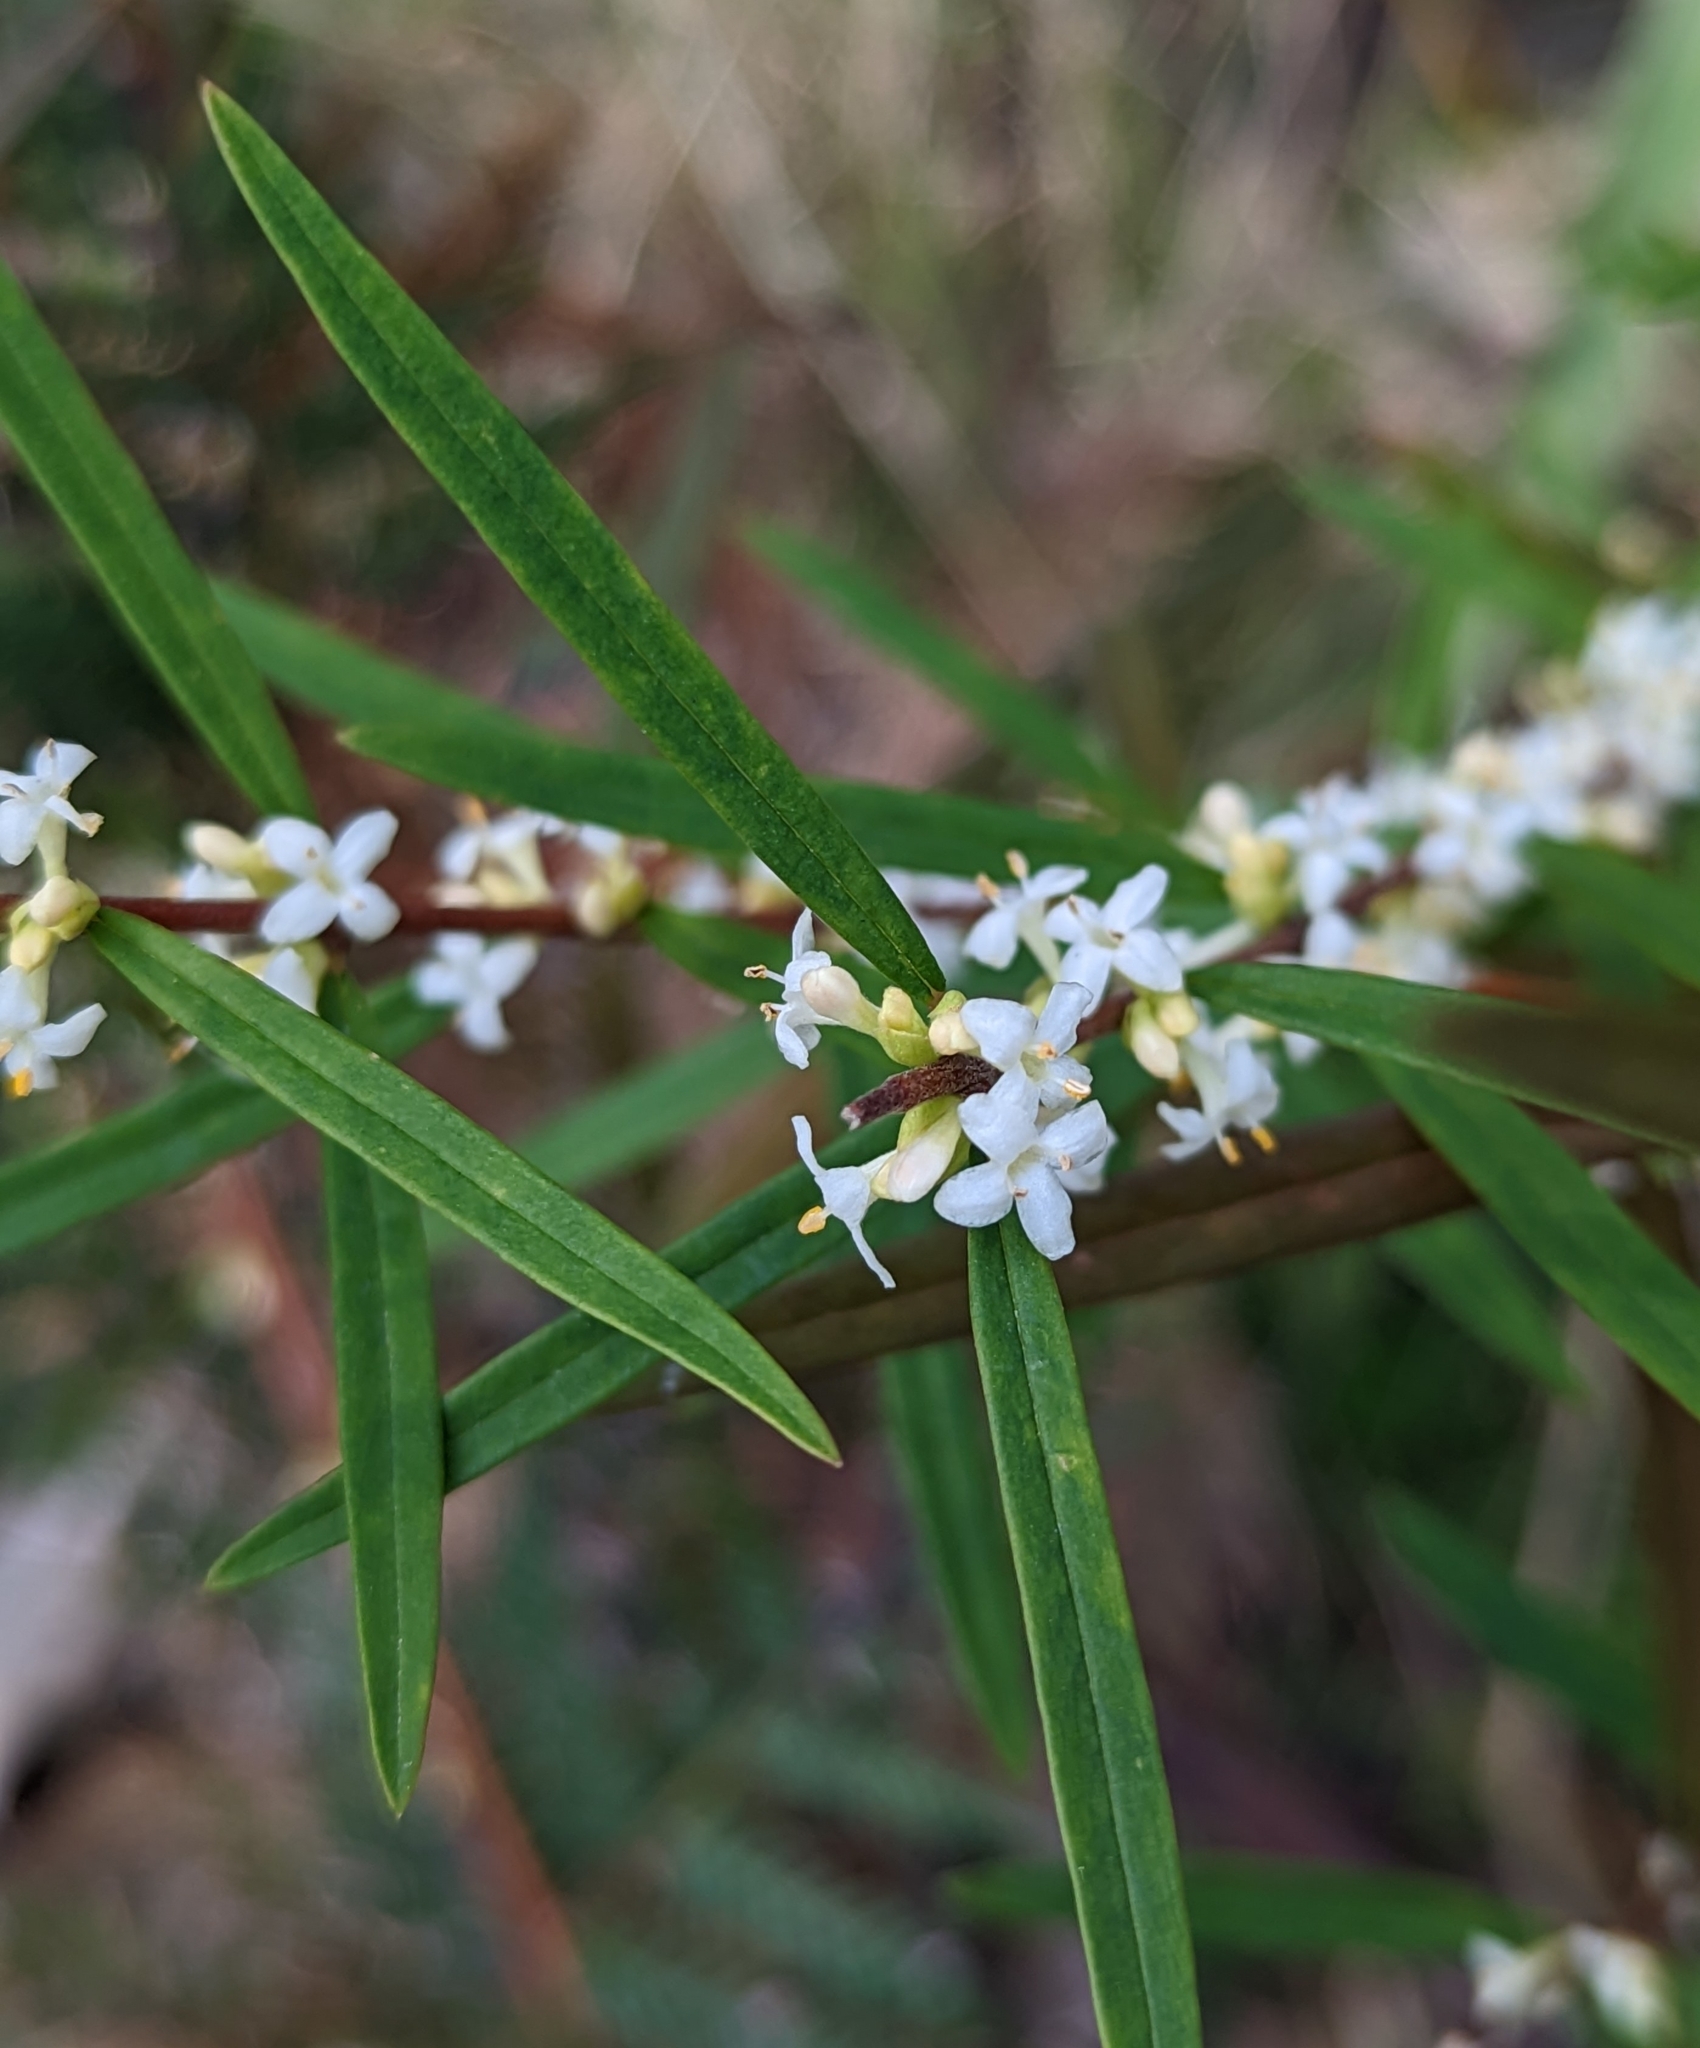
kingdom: Plantae
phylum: Tracheophyta
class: Magnoliopsida
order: Malvales
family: Thymelaeaceae
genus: Pimelea
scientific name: Pimelea axiflora
